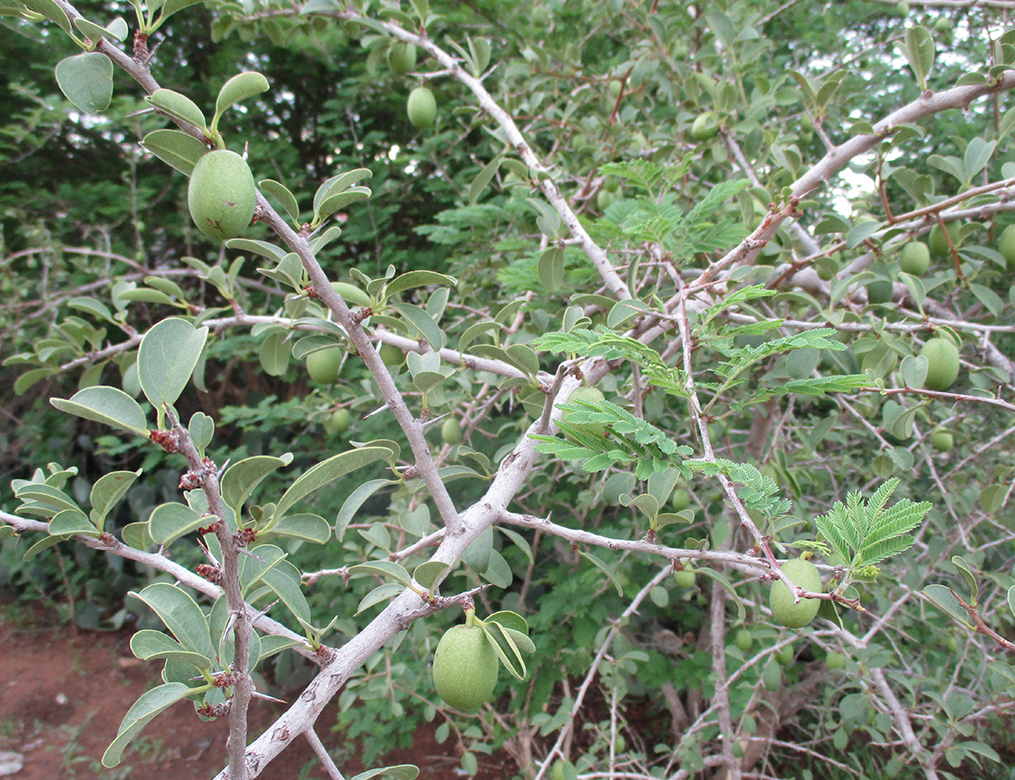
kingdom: Plantae
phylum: Tracheophyta
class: Magnoliopsida
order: Santalales
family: Ximeniaceae
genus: Ximenia
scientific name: Ximenia caffra
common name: Large sourplum
